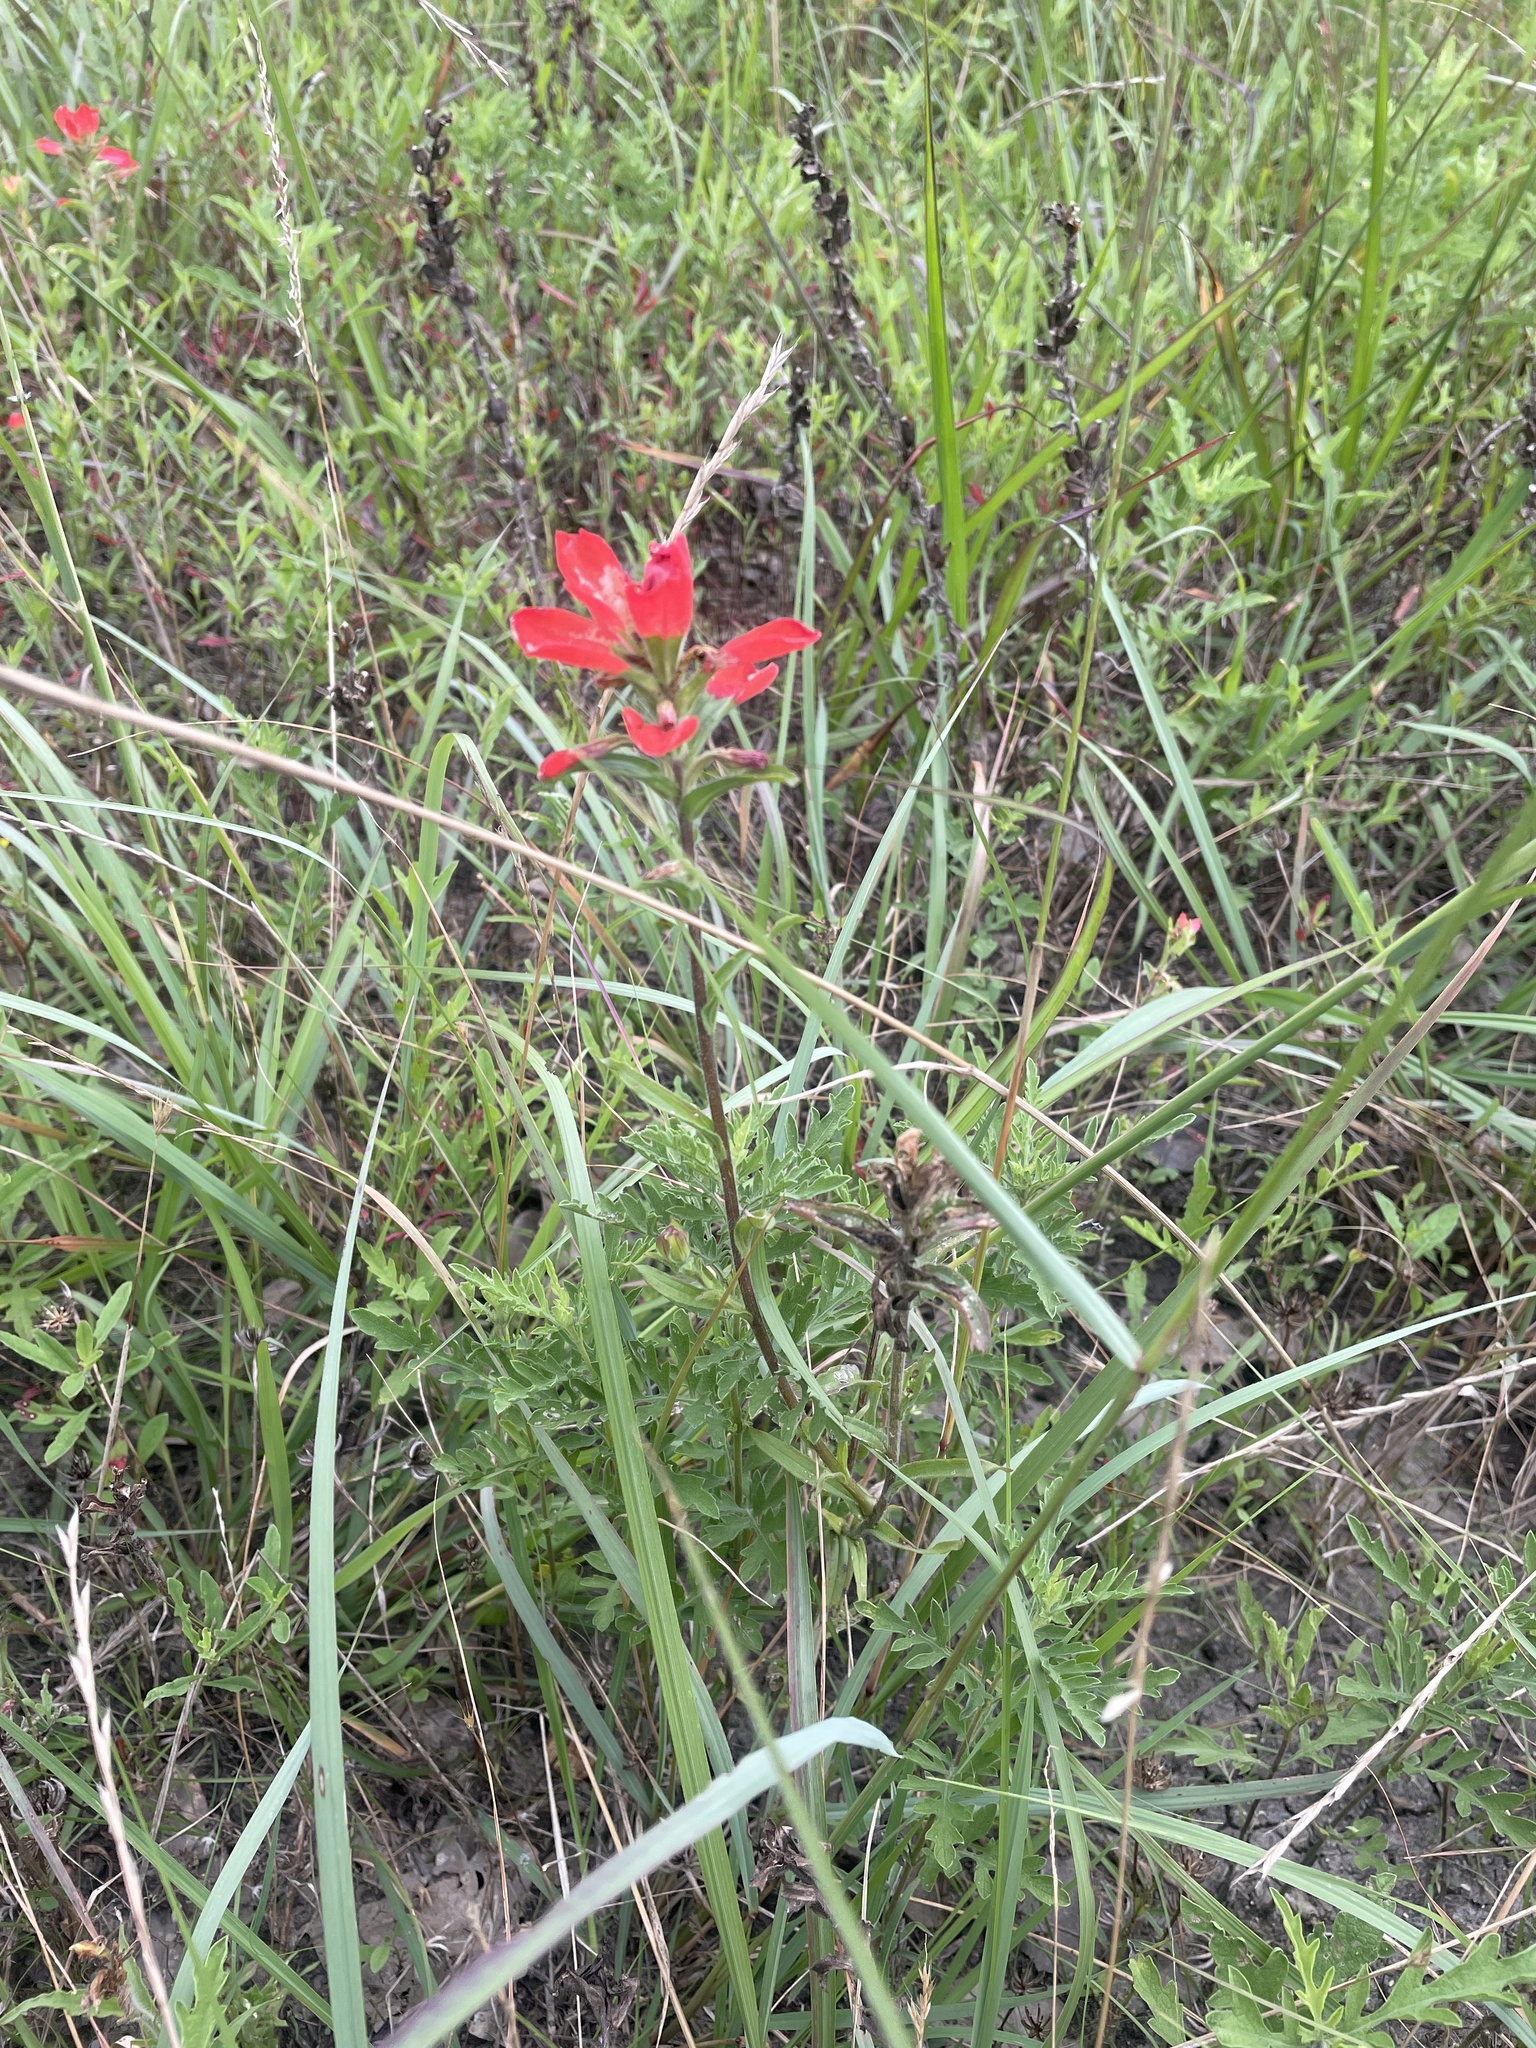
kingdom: Plantae
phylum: Tracheophyta
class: Magnoliopsida
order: Lamiales
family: Orobanchaceae
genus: Castilleja
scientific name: Castilleja indivisa
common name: Texas paintbrush
